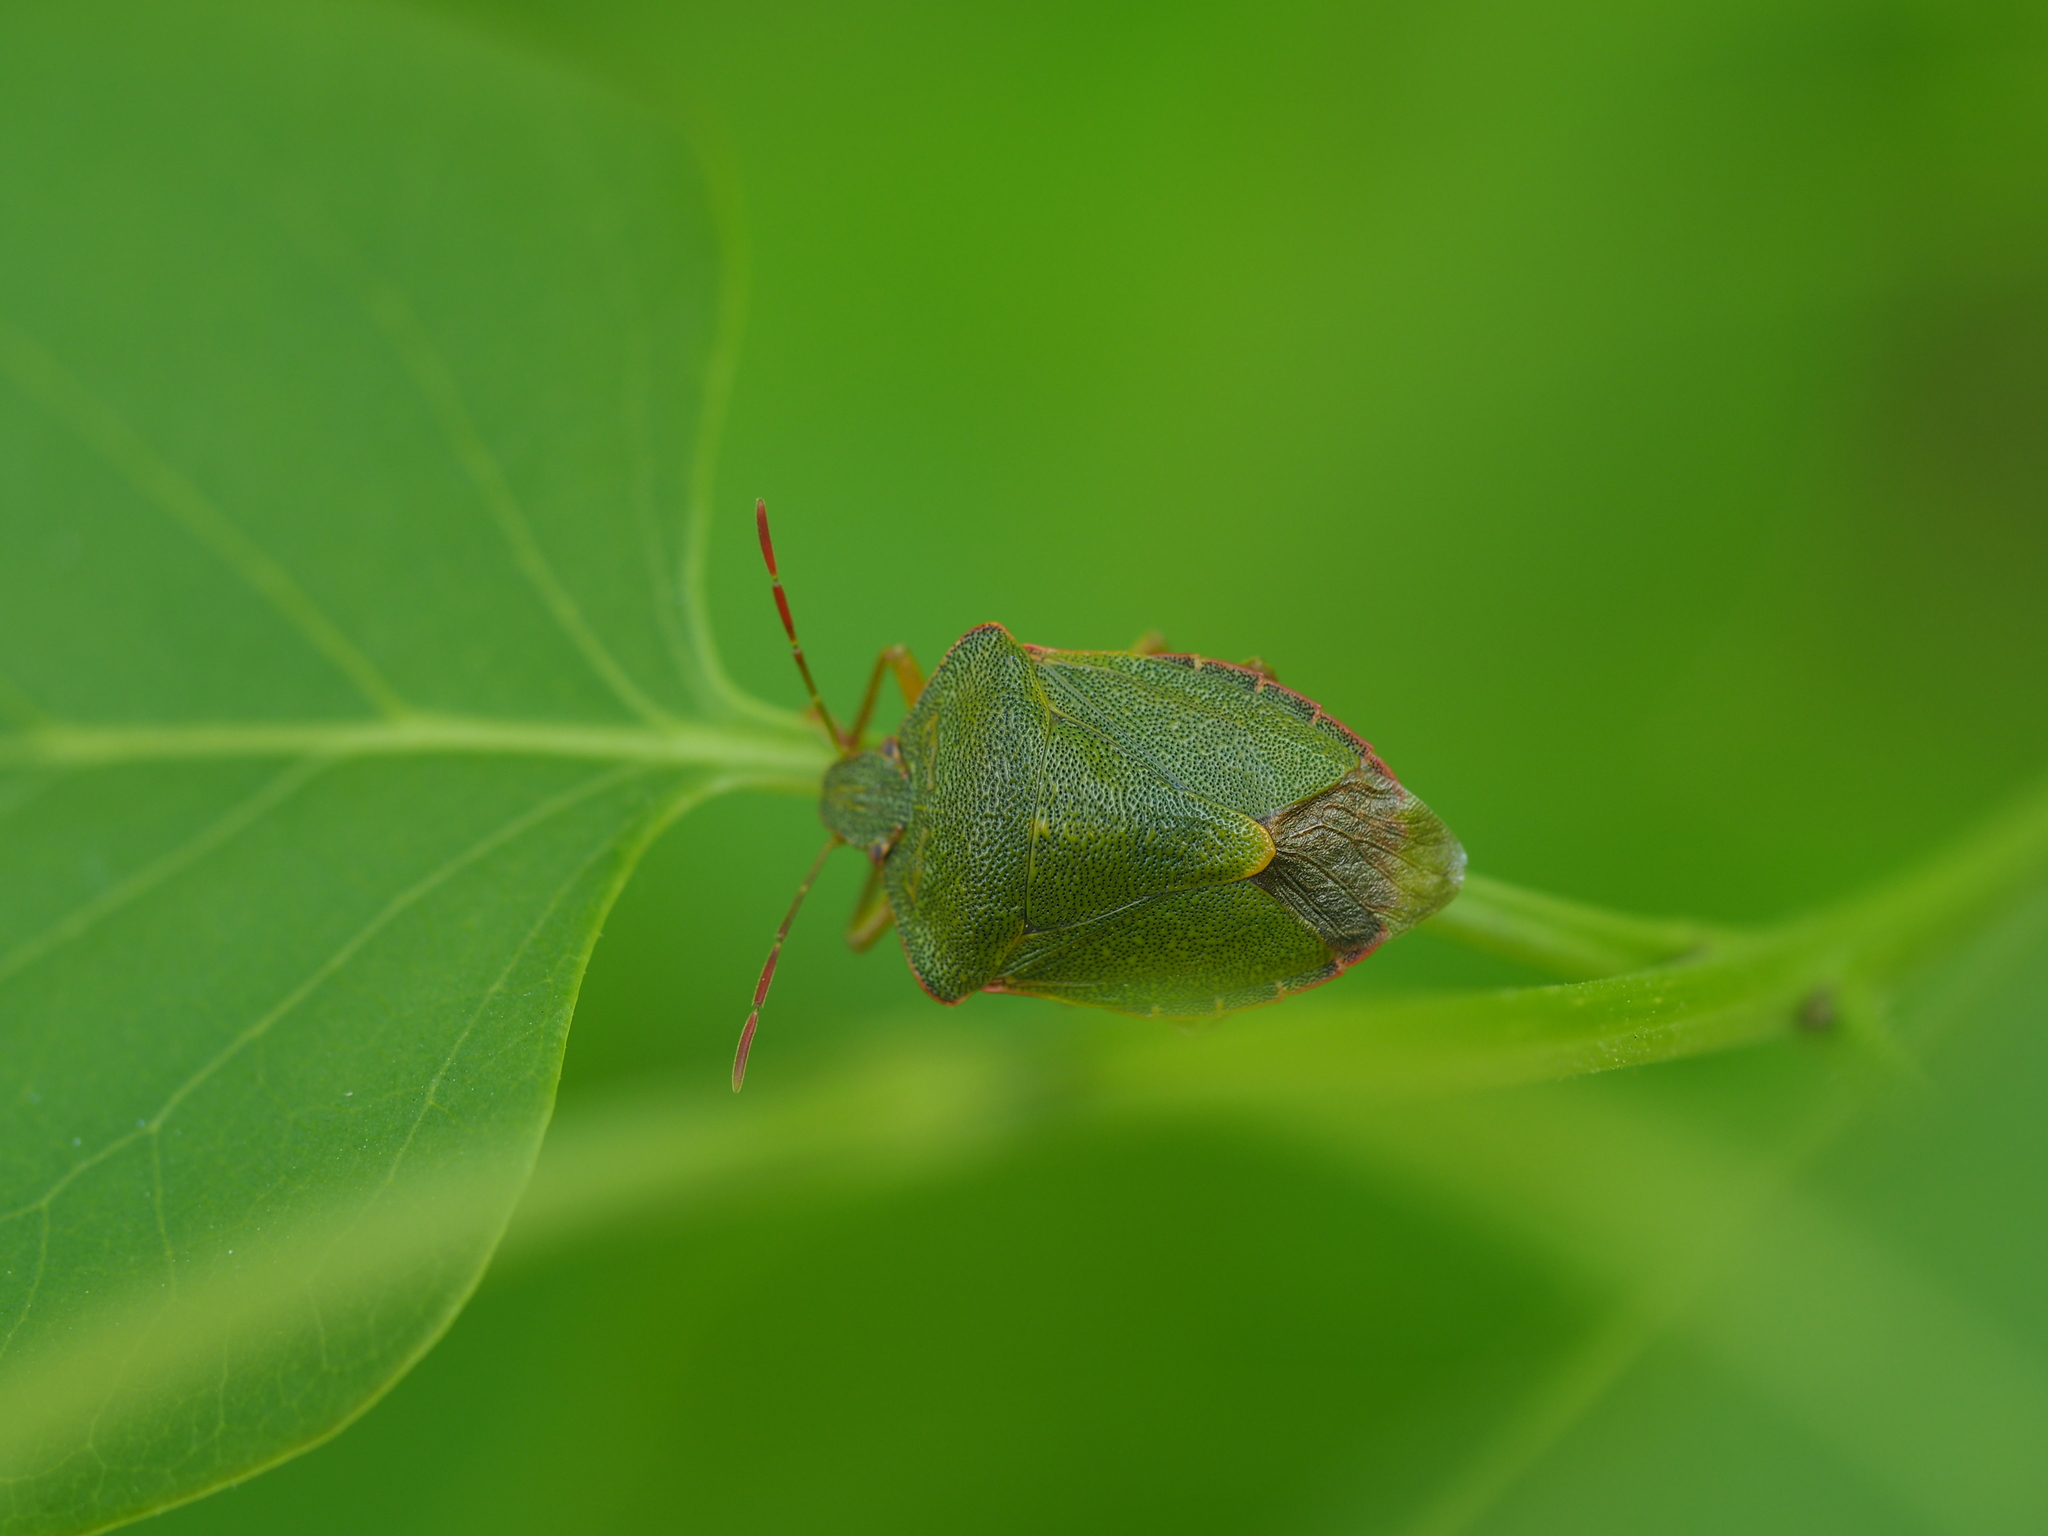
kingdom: Animalia
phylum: Arthropoda
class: Insecta
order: Hemiptera
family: Pentatomidae
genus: Palomena
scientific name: Palomena prasina
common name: Green shieldbug
